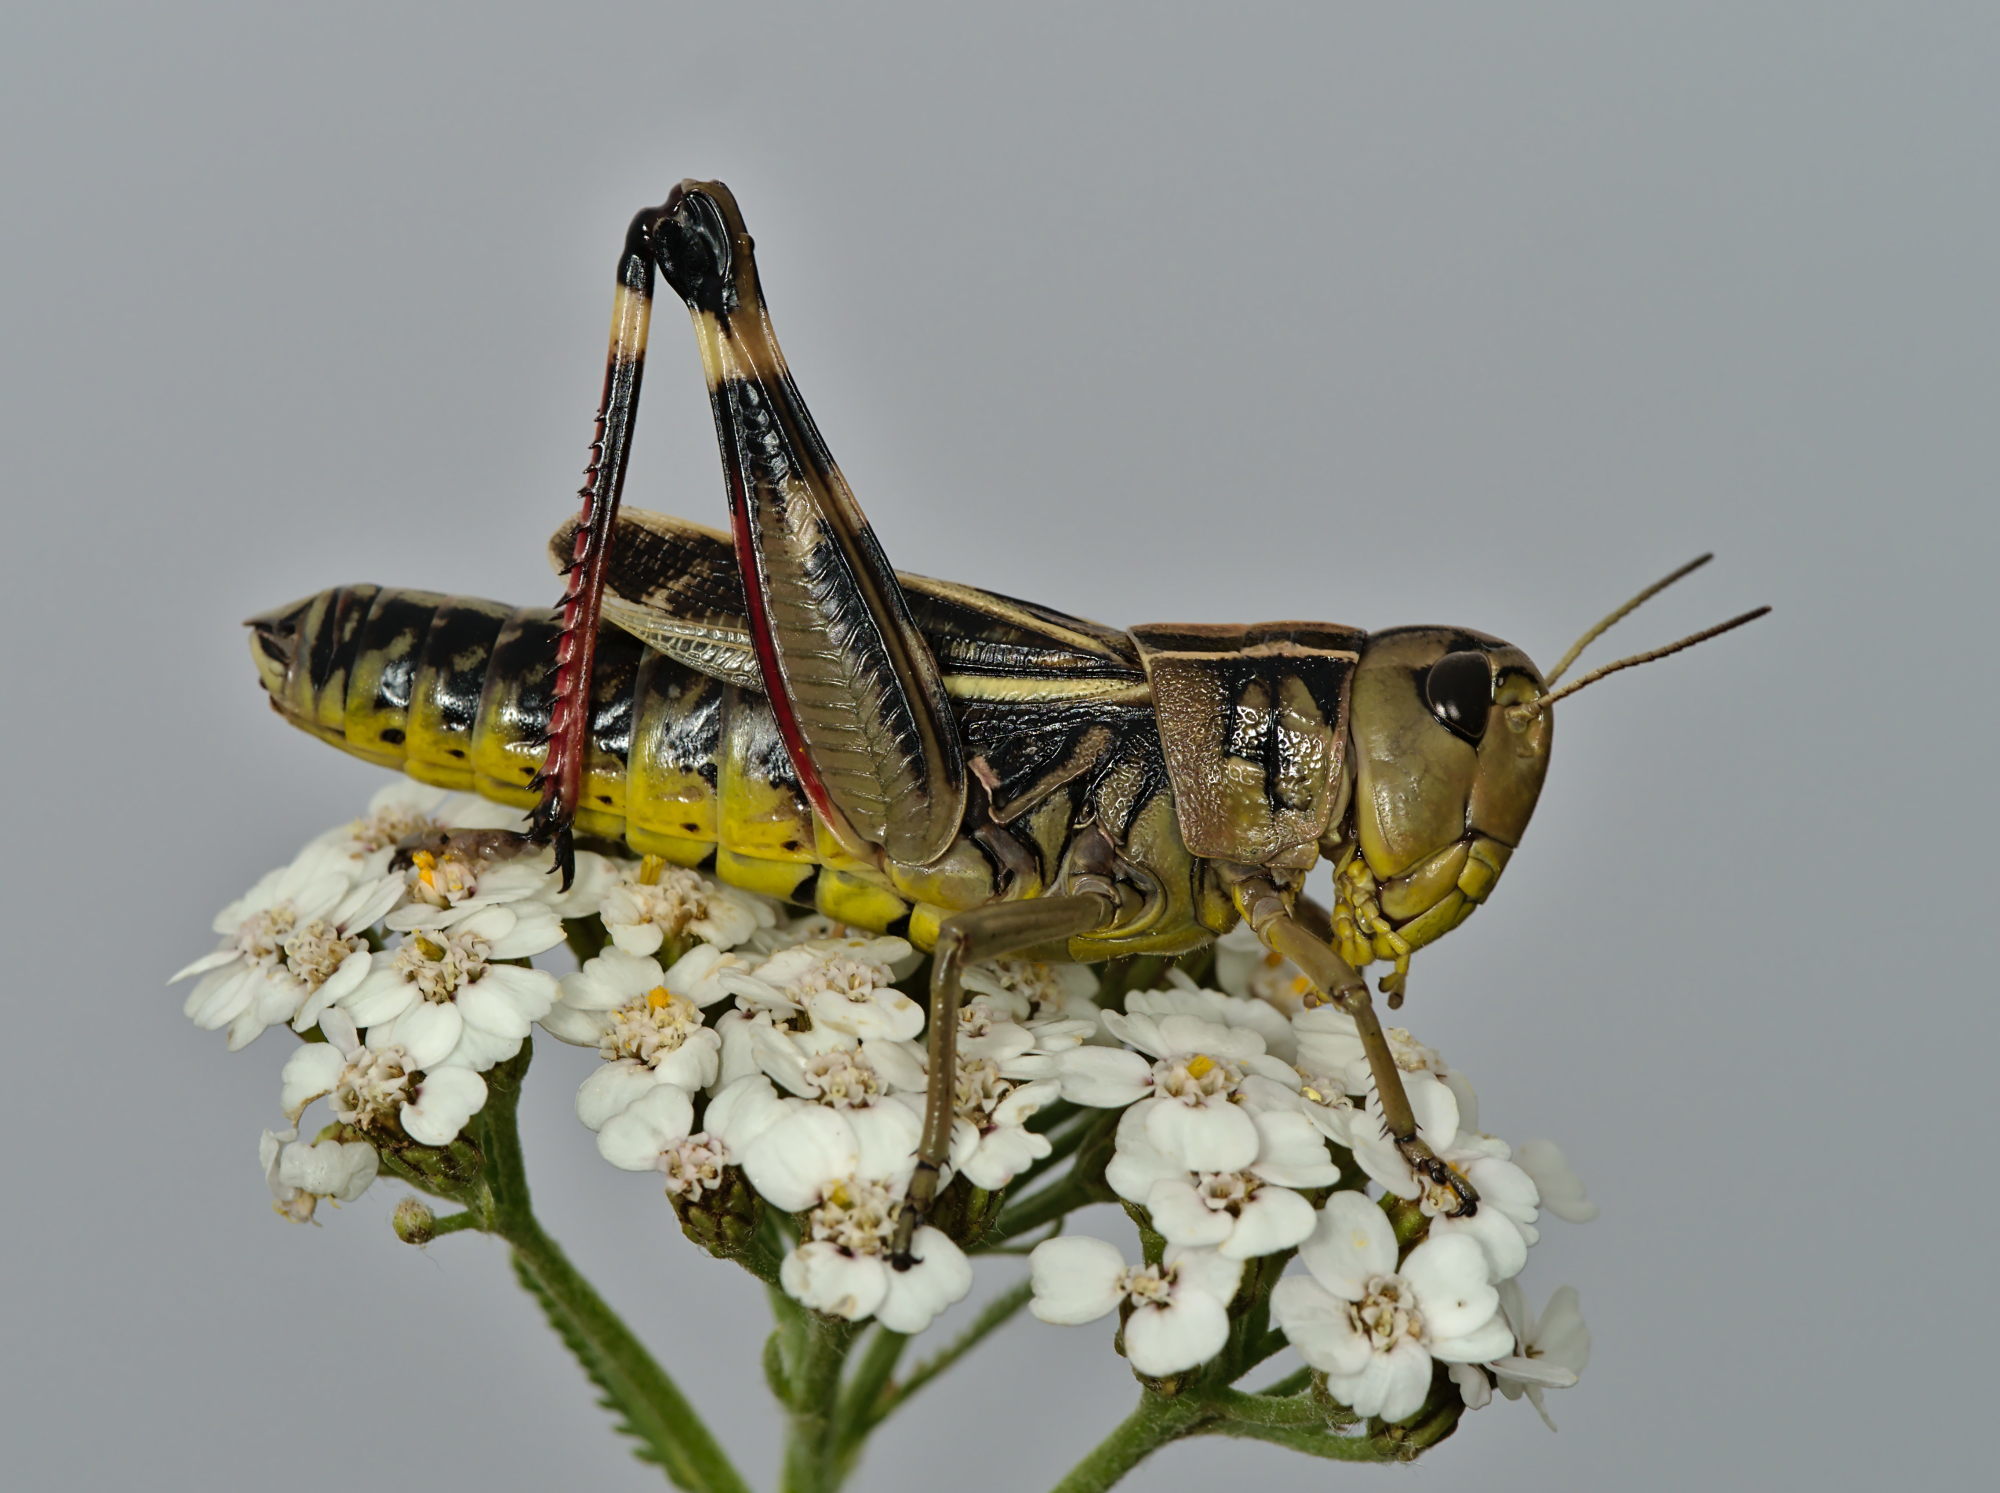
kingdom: Animalia
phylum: Arthropoda
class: Insecta
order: Orthoptera
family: Acrididae
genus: Arcyptera
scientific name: Arcyptera fusca
